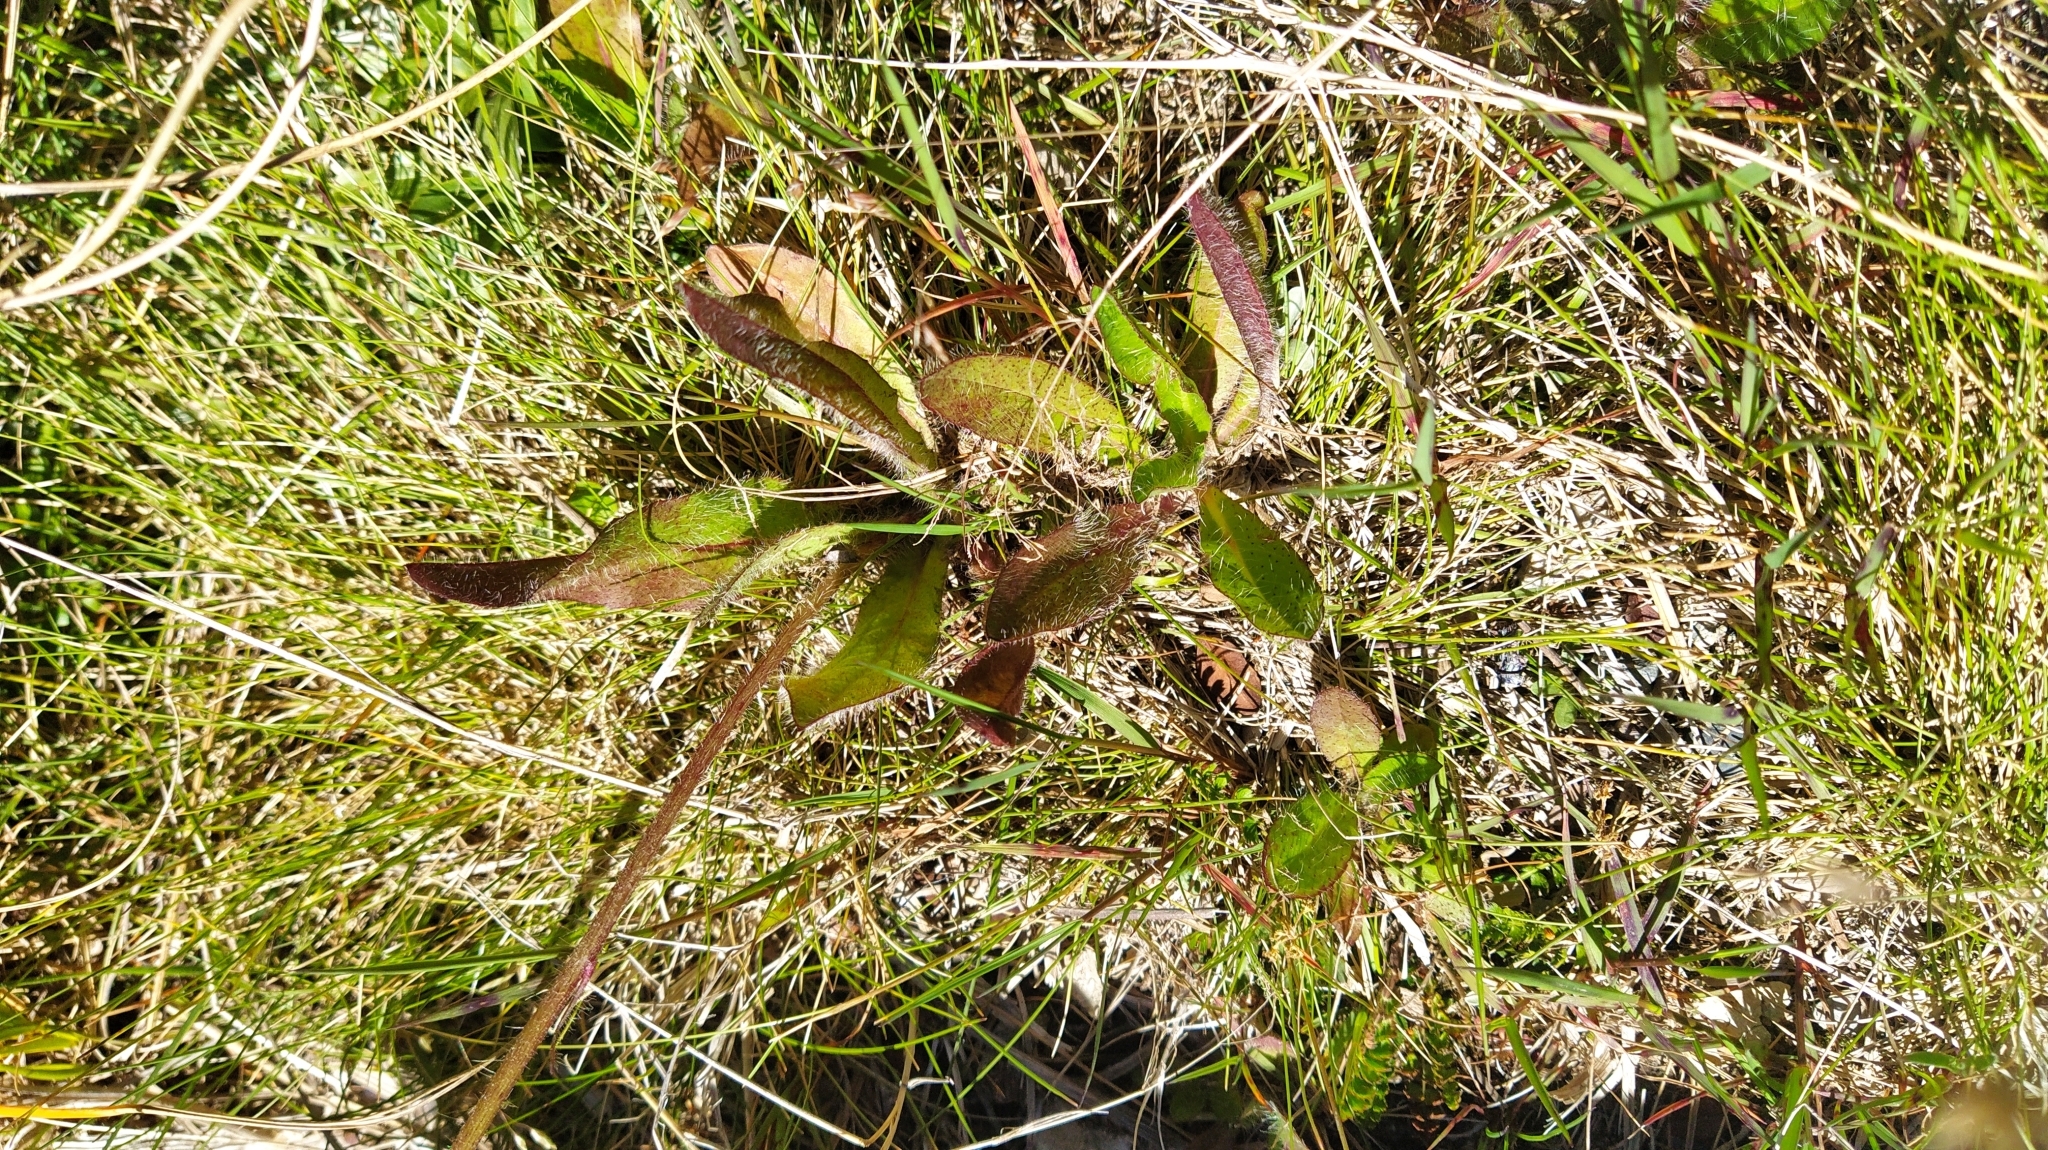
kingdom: Plantae
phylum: Tracheophyta
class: Magnoliopsida
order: Asterales
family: Asteraceae
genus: Pilosella
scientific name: Pilosella aurantiaca
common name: Fox-and-cubs
